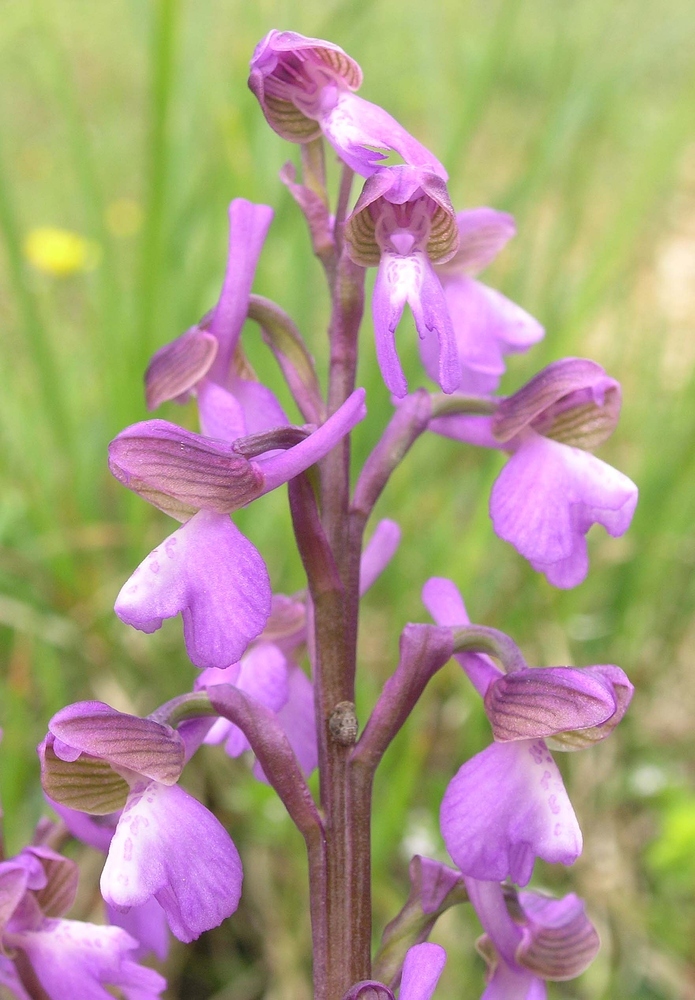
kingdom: Plantae
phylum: Tracheophyta
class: Liliopsida
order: Asparagales
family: Orchidaceae
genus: Anacamptis
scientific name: Anacamptis morio
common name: Green-winged orchid
